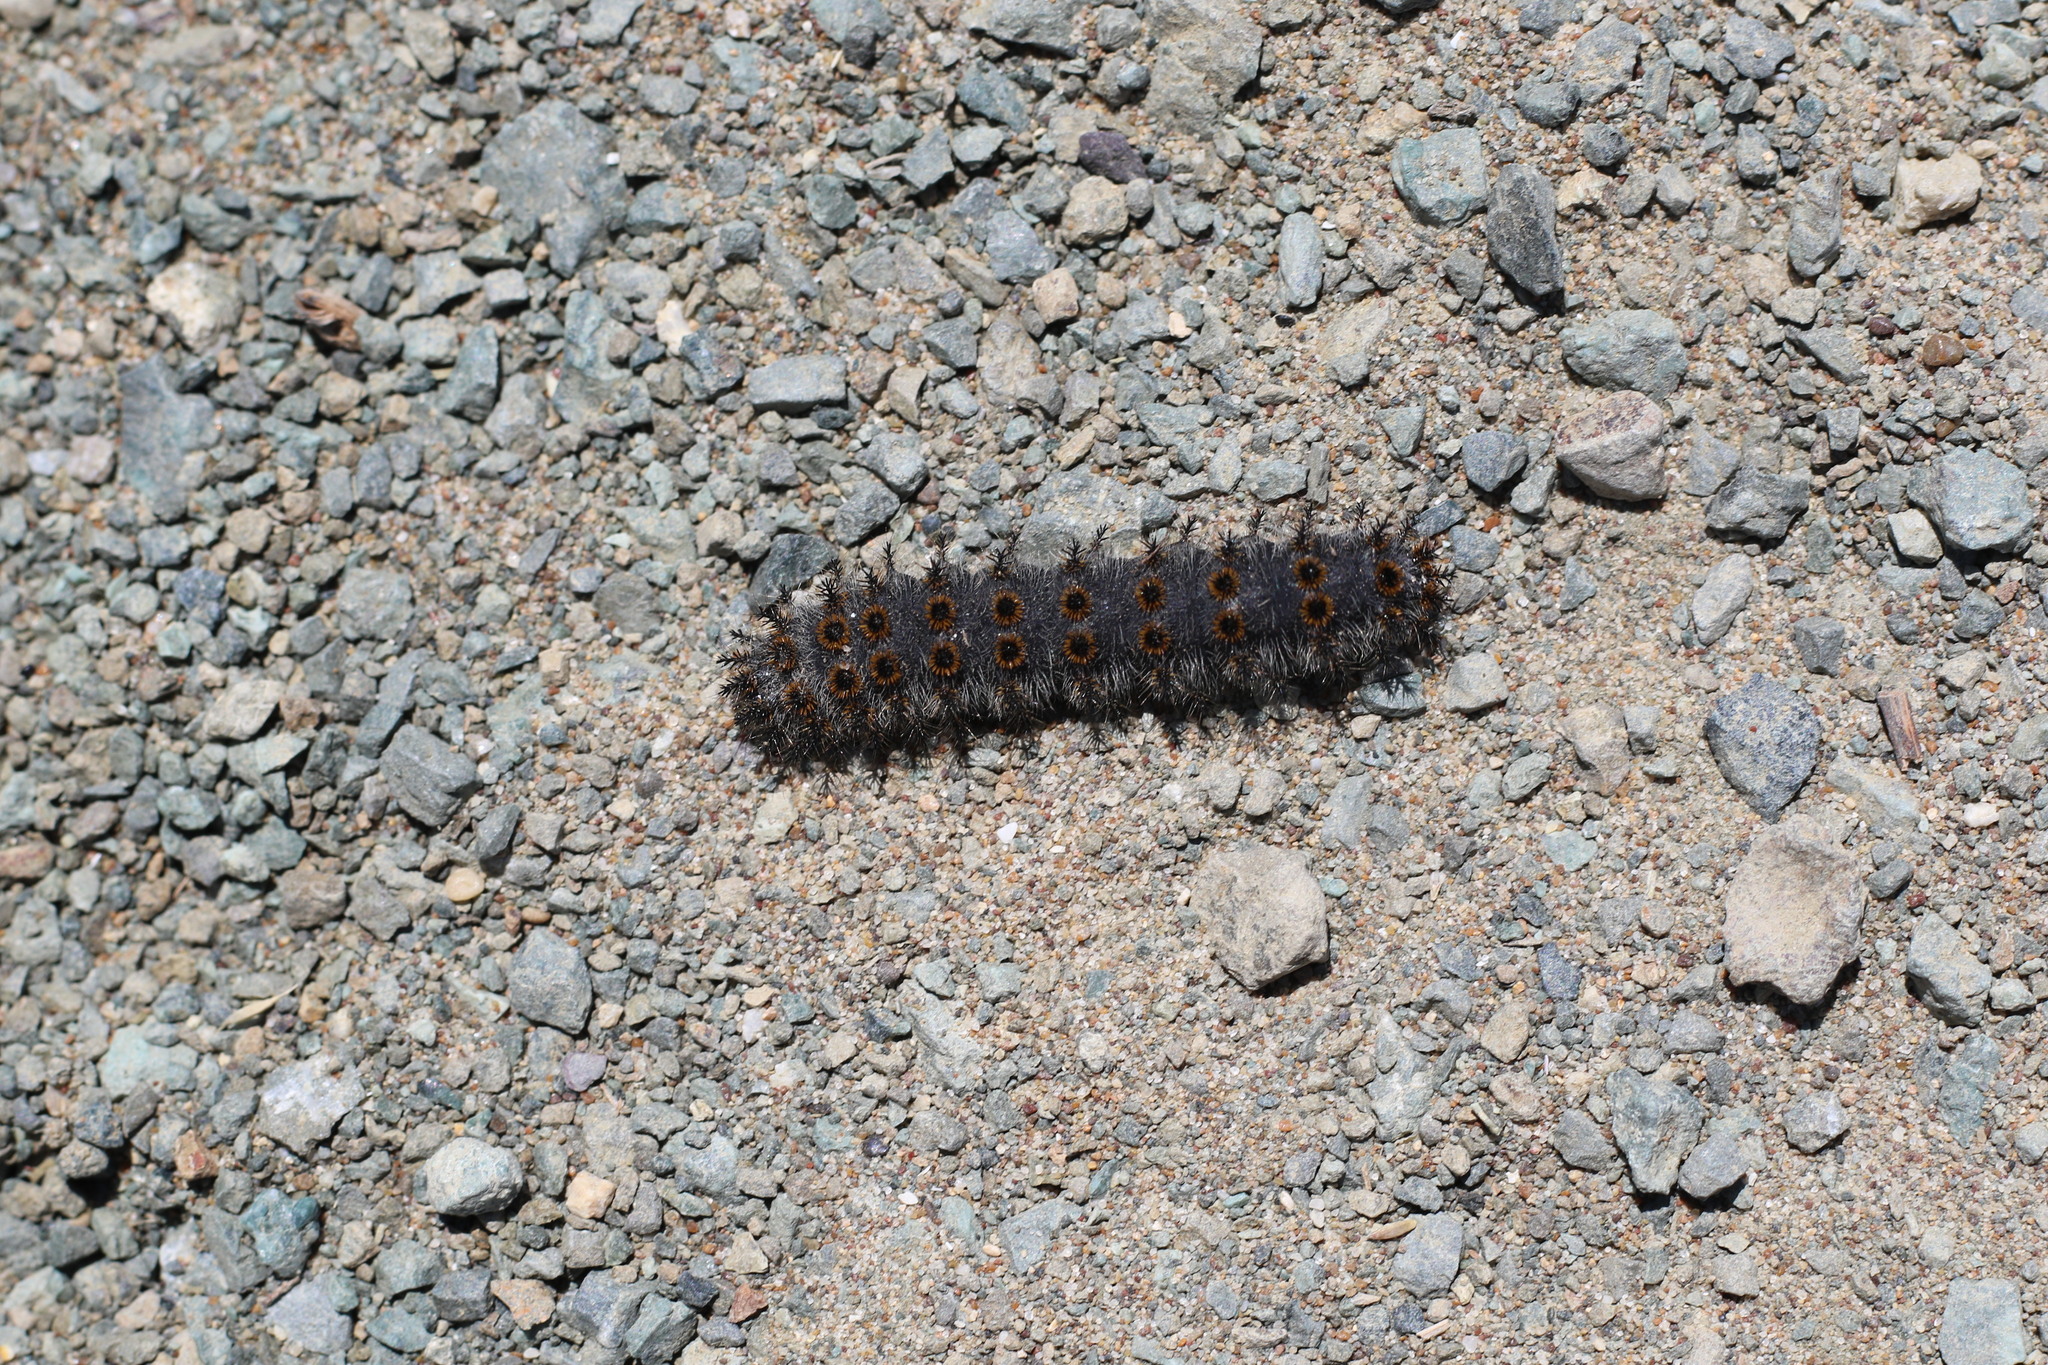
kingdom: Animalia
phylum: Arthropoda
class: Insecta
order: Lepidoptera
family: Saturniidae
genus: Hemileuca
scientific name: Hemileuca eglanterina
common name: Western sheepmoth
